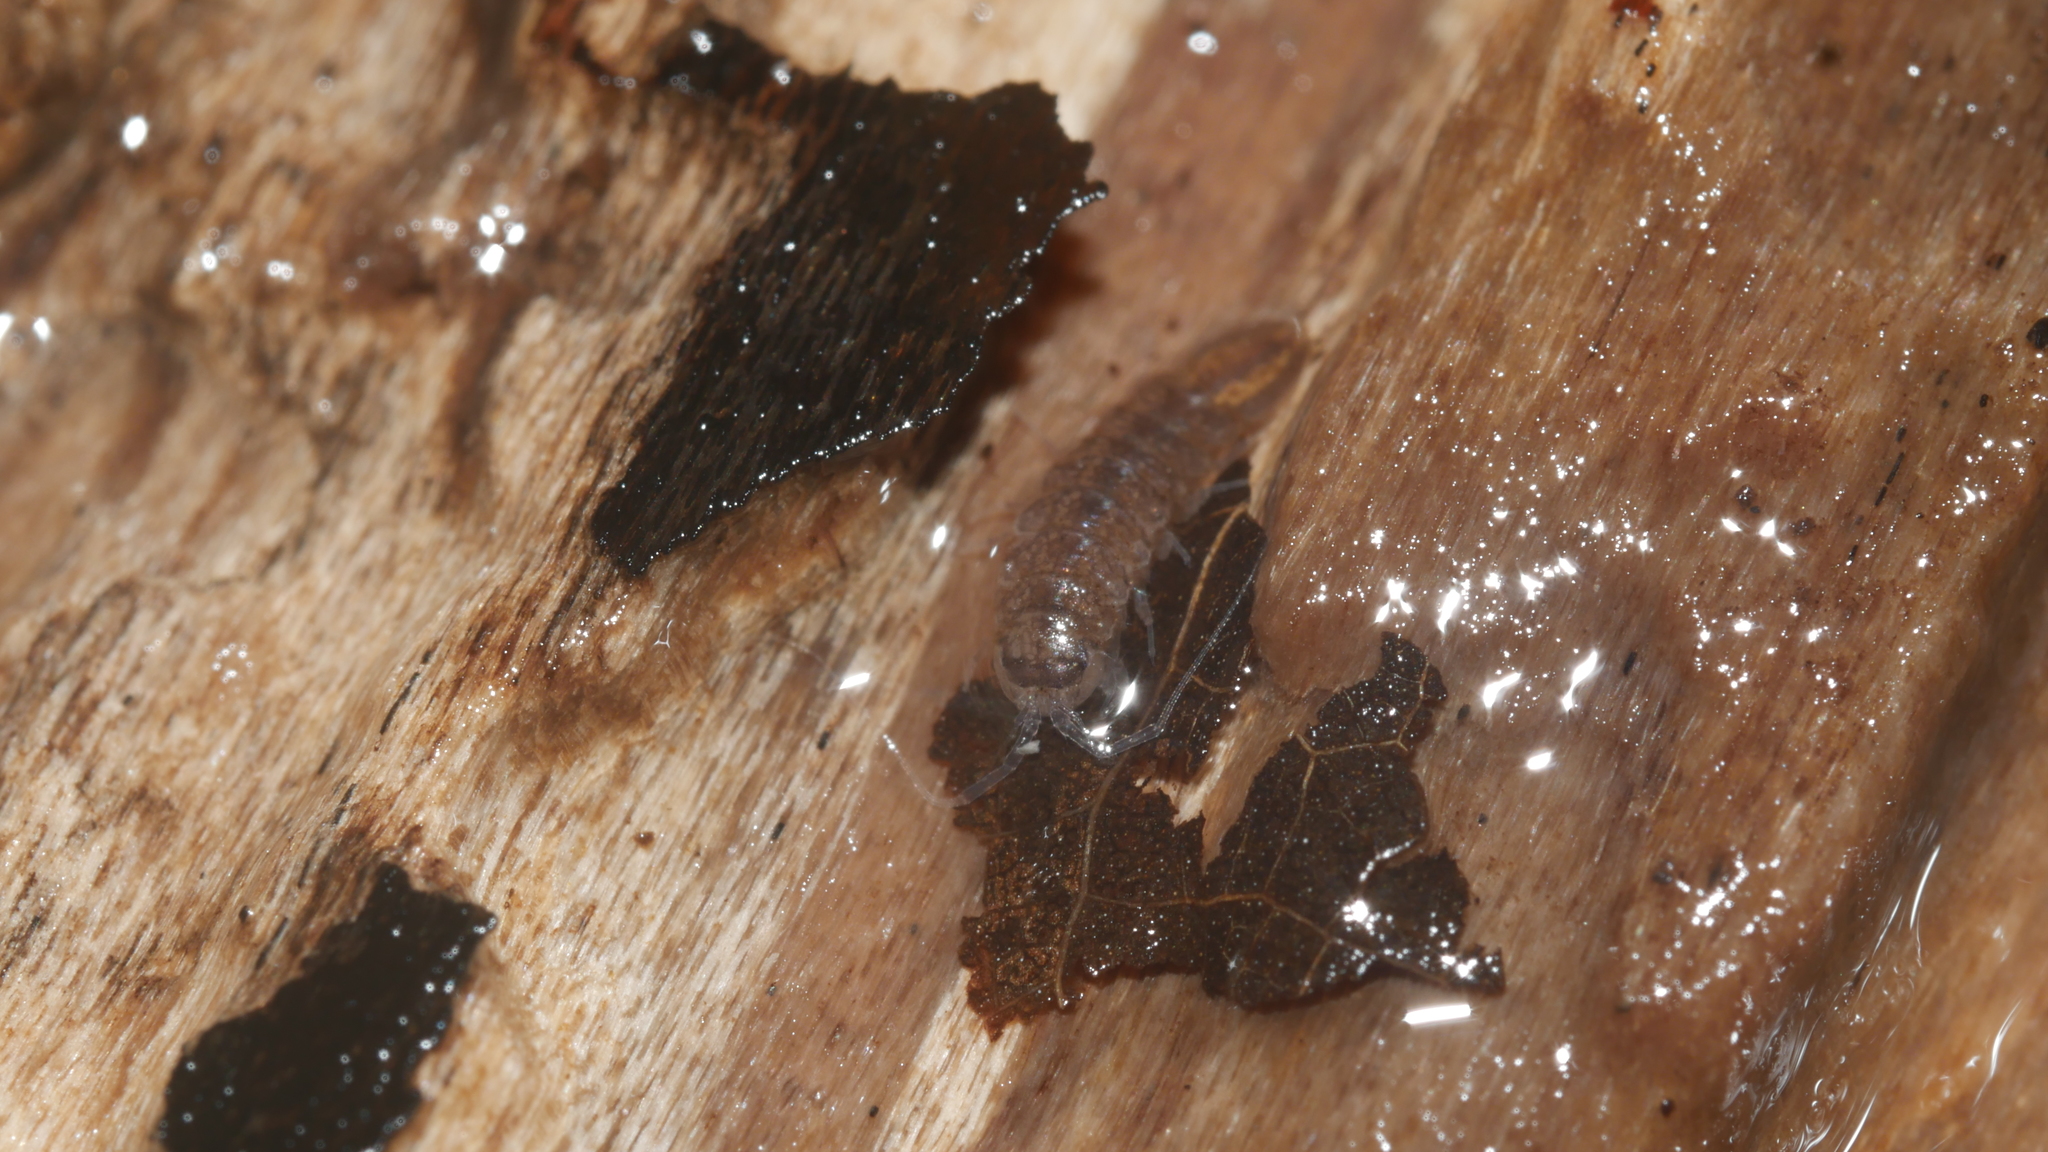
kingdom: Animalia
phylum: Arthropoda
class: Malacostraca
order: Isopoda
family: Asellidae
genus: Caecidotea
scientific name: Caecidotea nodula
